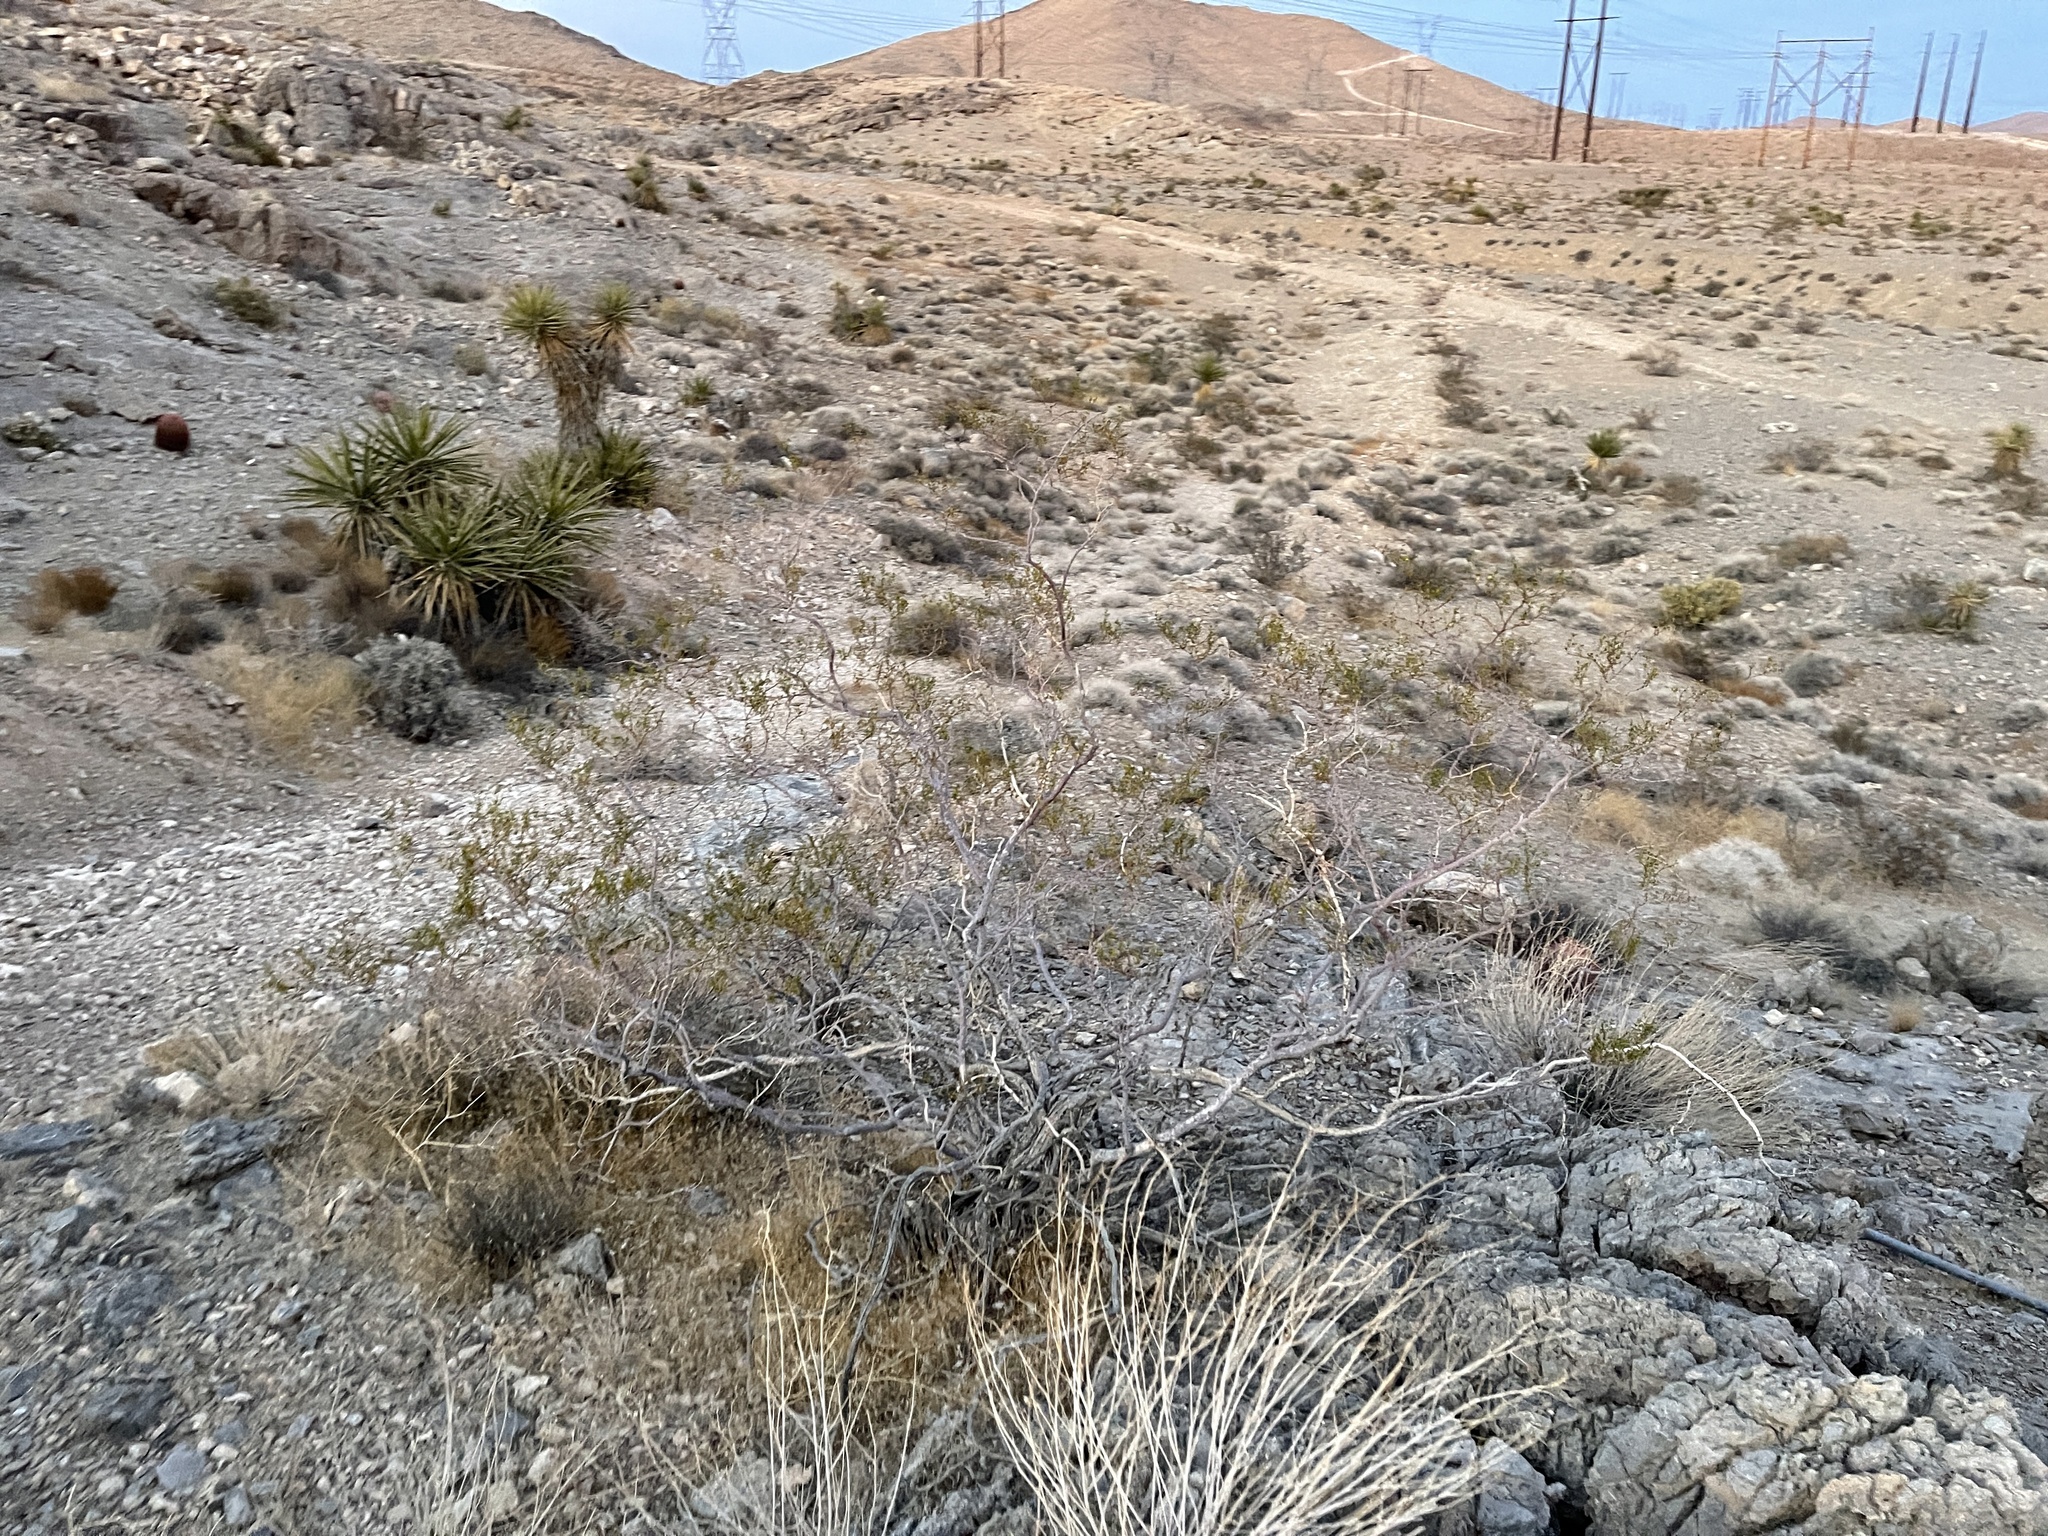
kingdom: Plantae
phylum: Tracheophyta
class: Magnoliopsida
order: Zygophyllales
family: Zygophyllaceae
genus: Larrea
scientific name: Larrea tridentata
